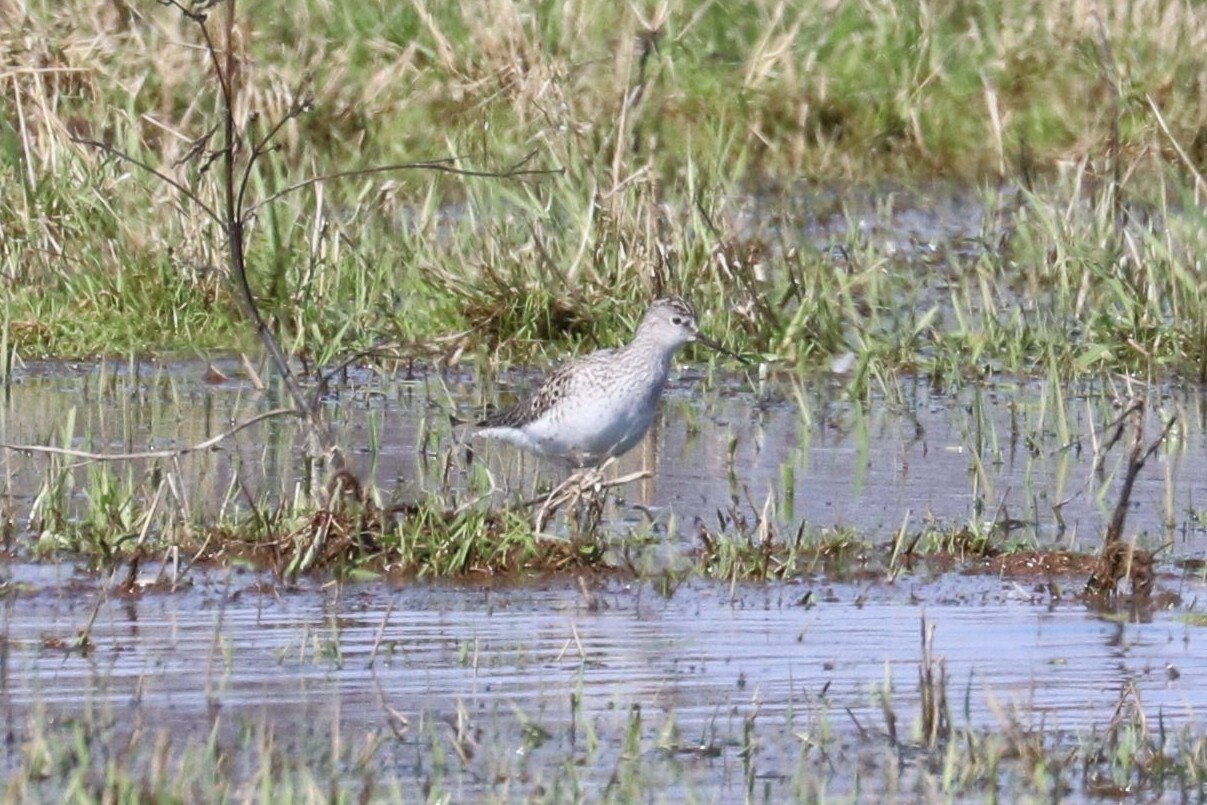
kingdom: Animalia
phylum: Chordata
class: Aves
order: Charadriiformes
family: Scolopacidae
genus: Tringa
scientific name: Tringa stagnatilis
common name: Marsh sandpiper
